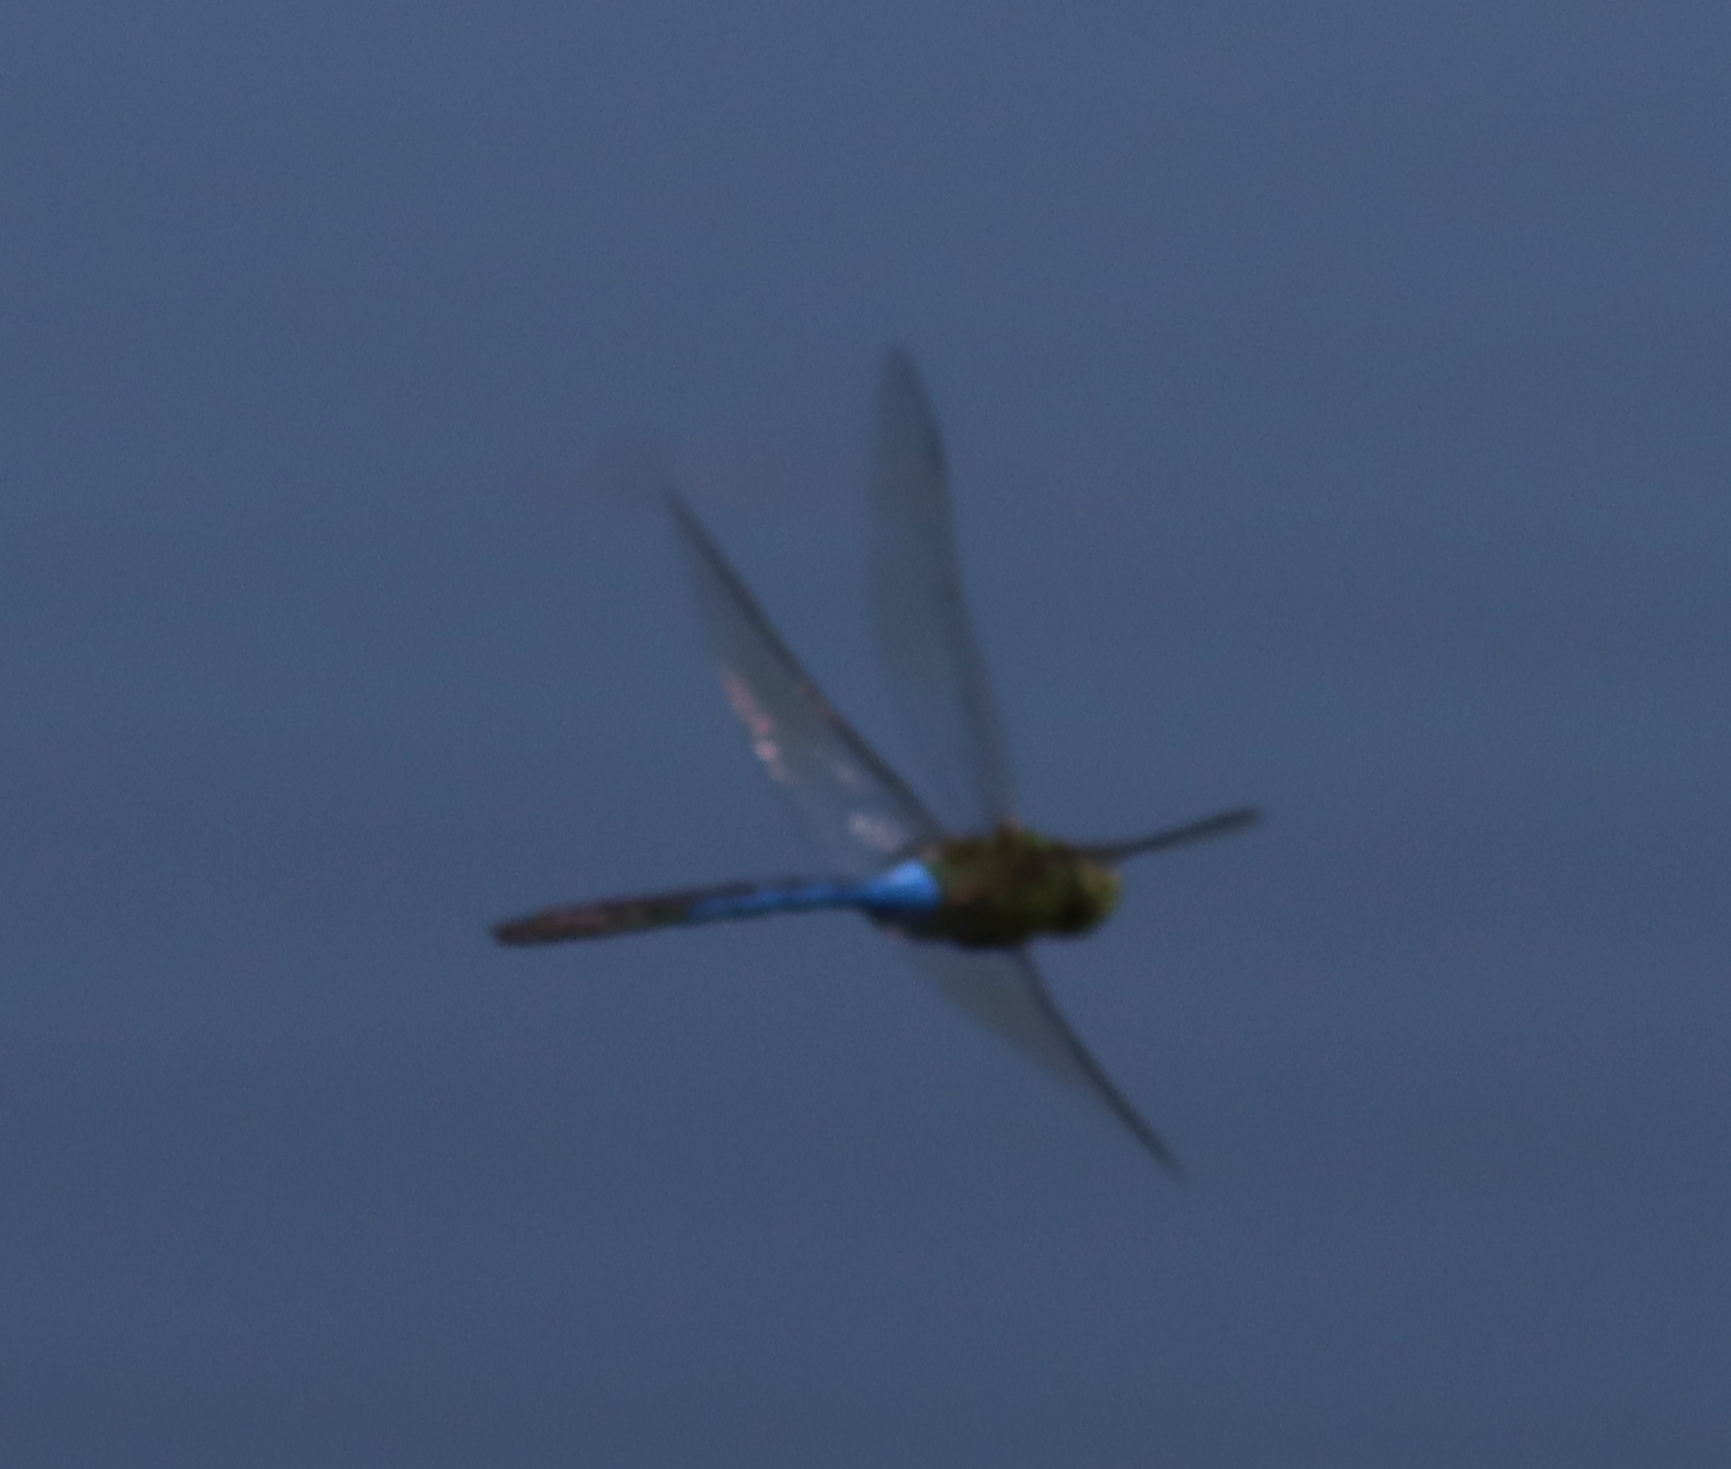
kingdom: Animalia
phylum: Arthropoda
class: Insecta
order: Odonata
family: Aeshnidae
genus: Anax
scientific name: Anax junius
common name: Common green darner
